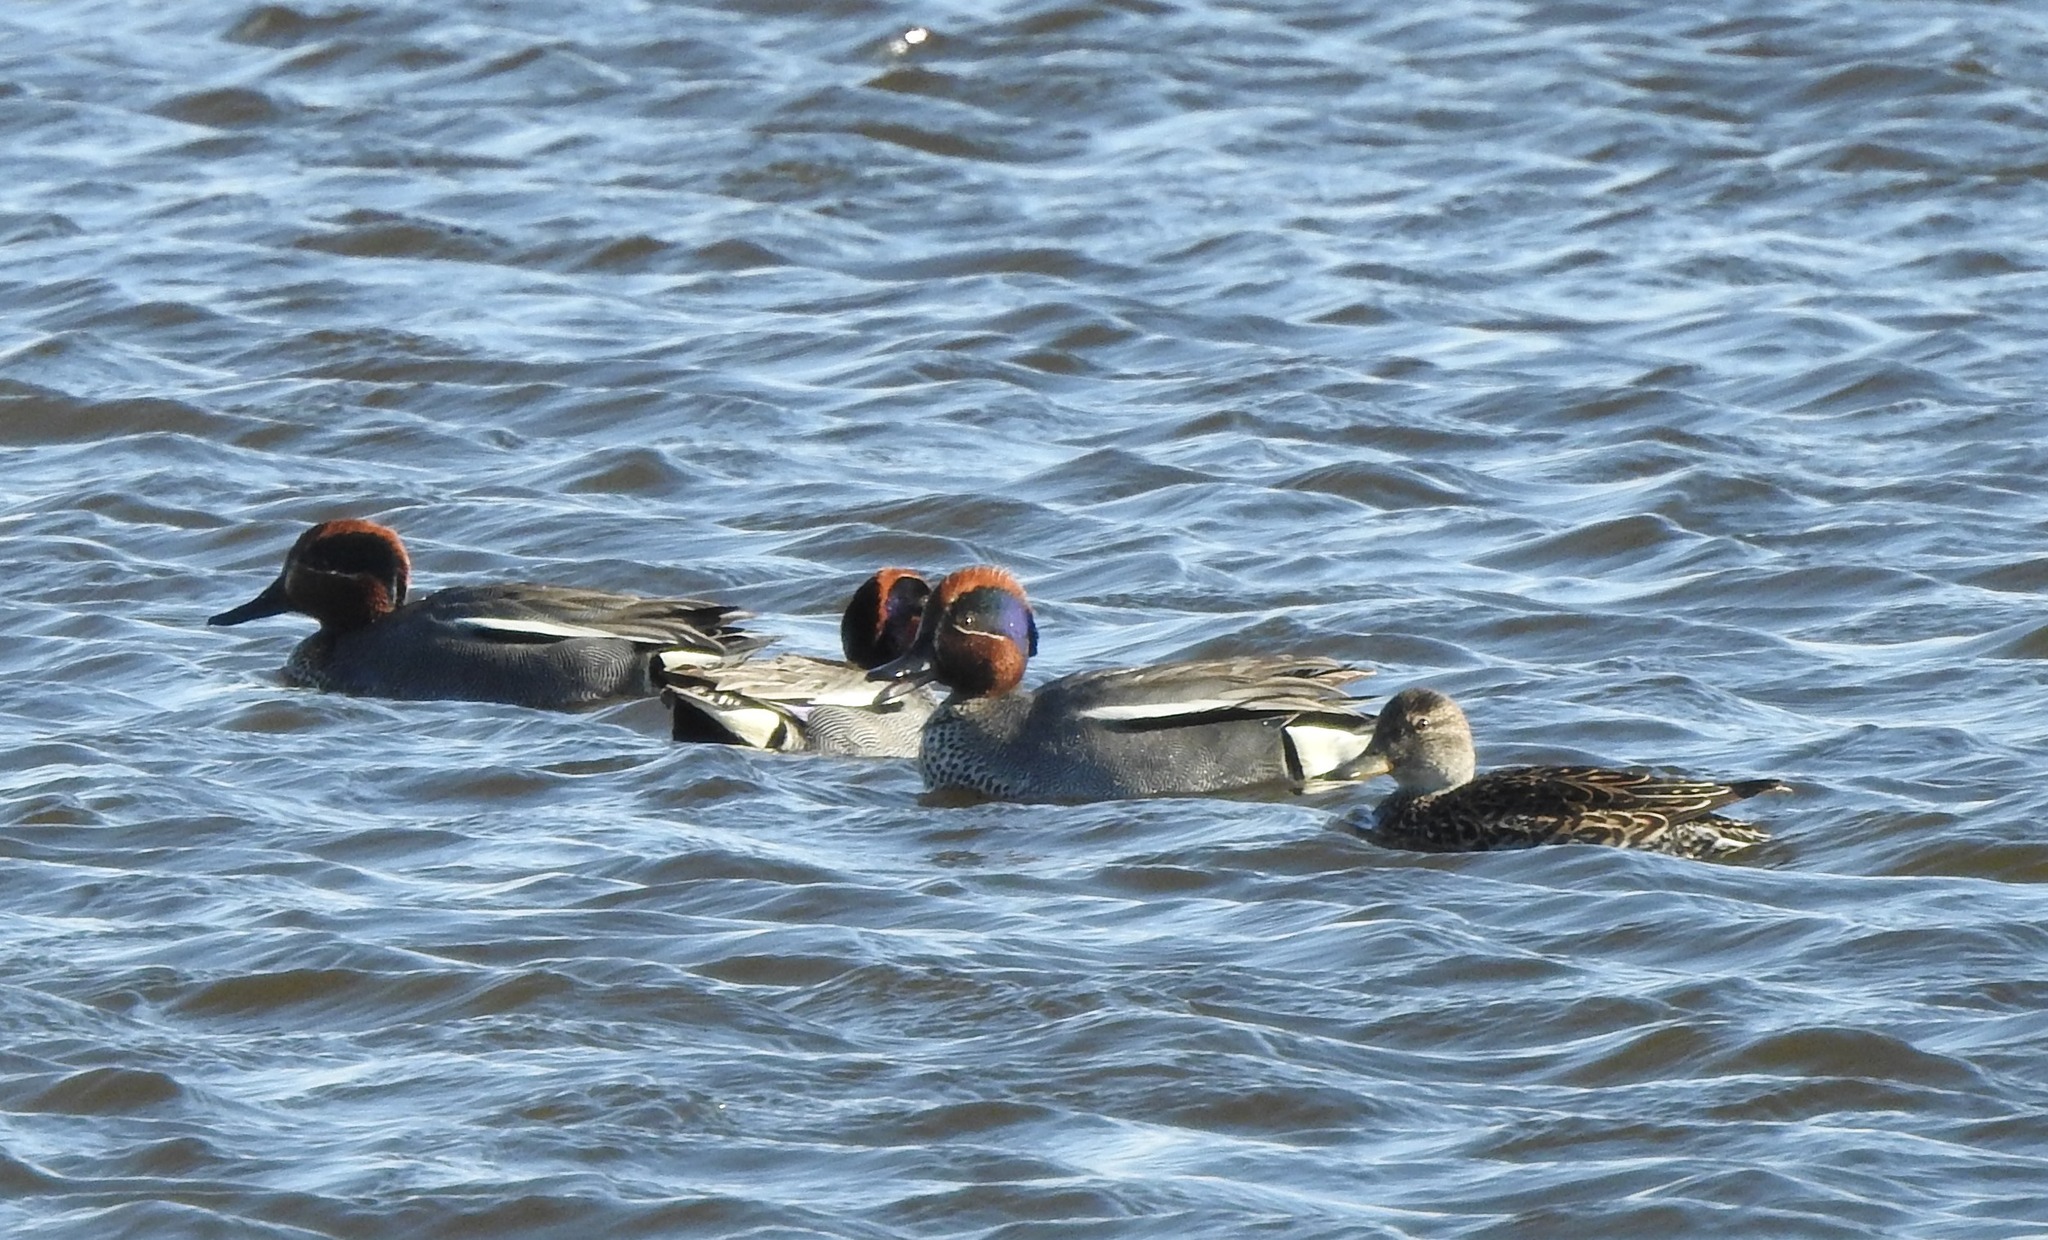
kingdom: Animalia
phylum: Chordata
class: Aves
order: Anseriformes
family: Anatidae
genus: Anas
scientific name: Anas crecca
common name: Eurasian teal
